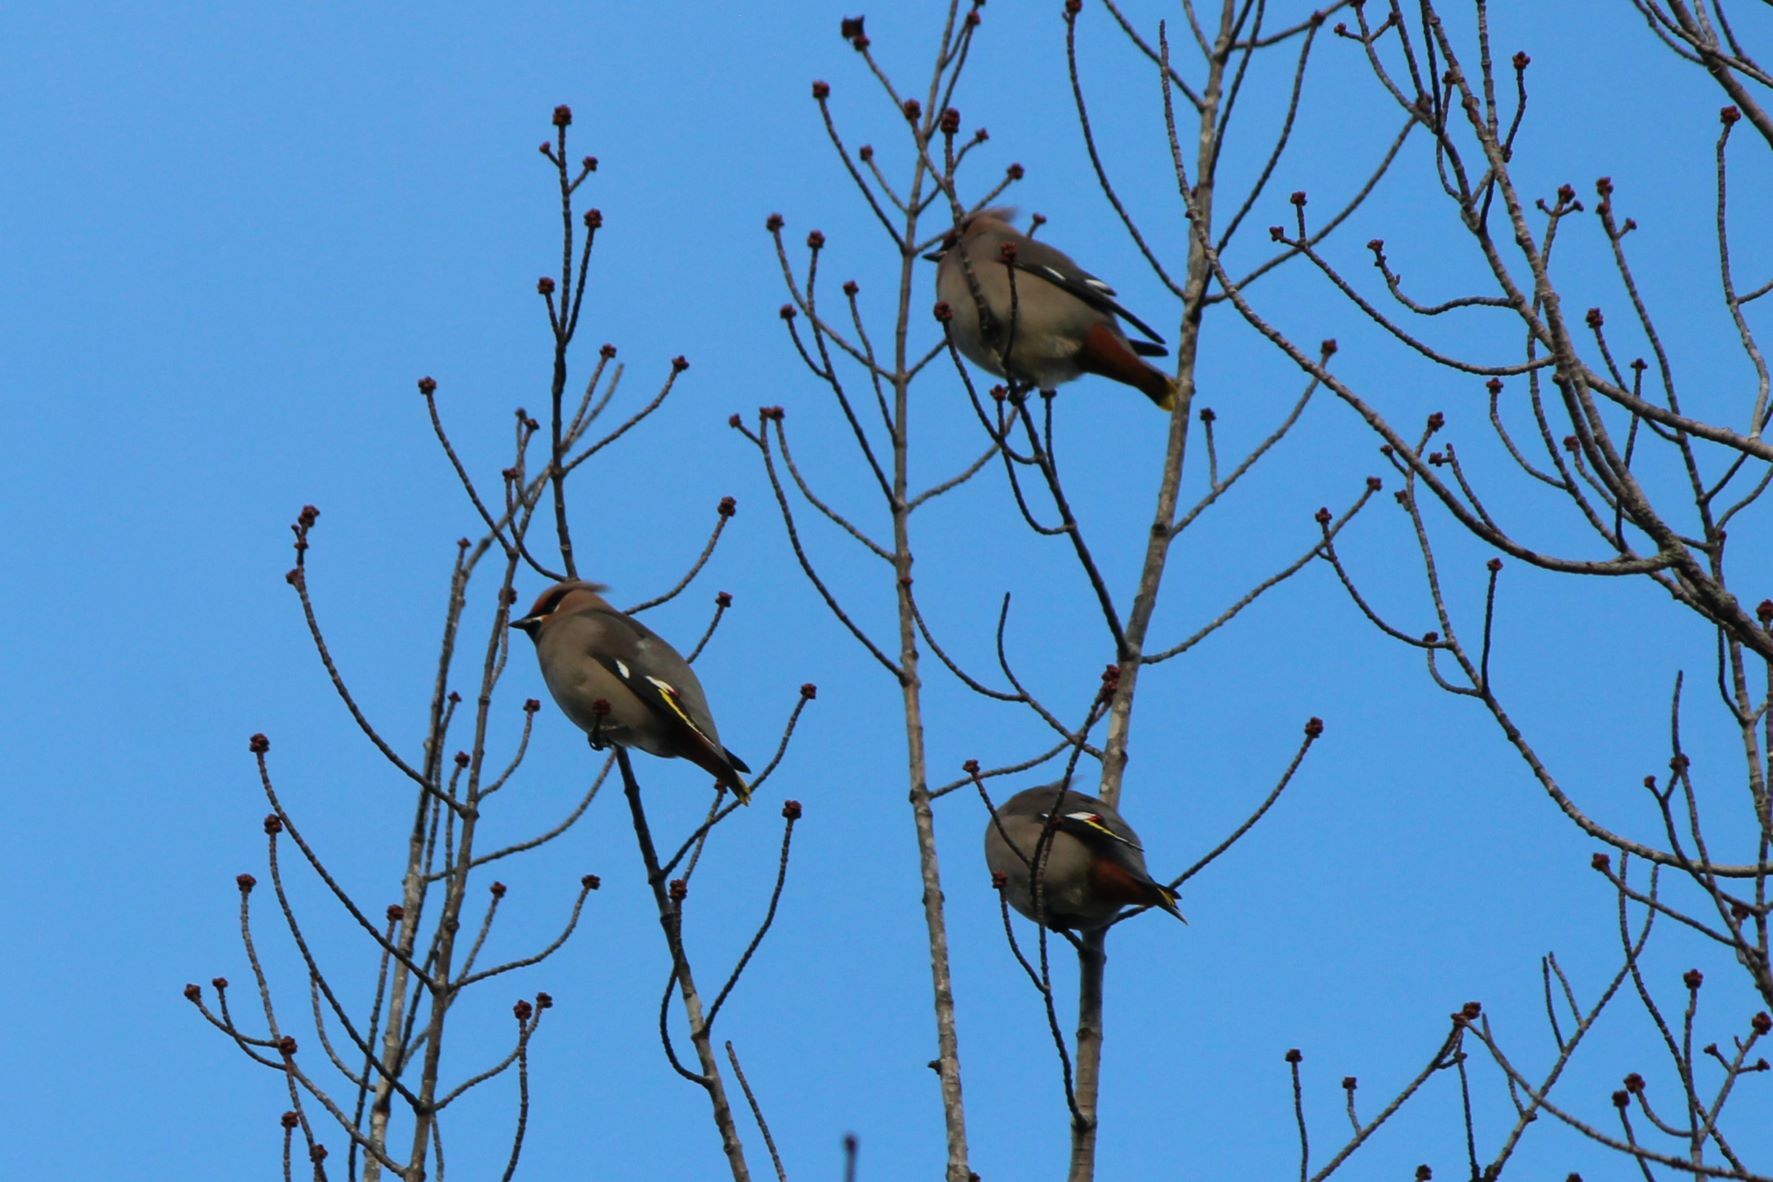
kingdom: Animalia
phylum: Chordata
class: Aves
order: Passeriformes
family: Bombycillidae
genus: Bombycilla
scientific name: Bombycilla garrulus
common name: Bohemian waxwing
